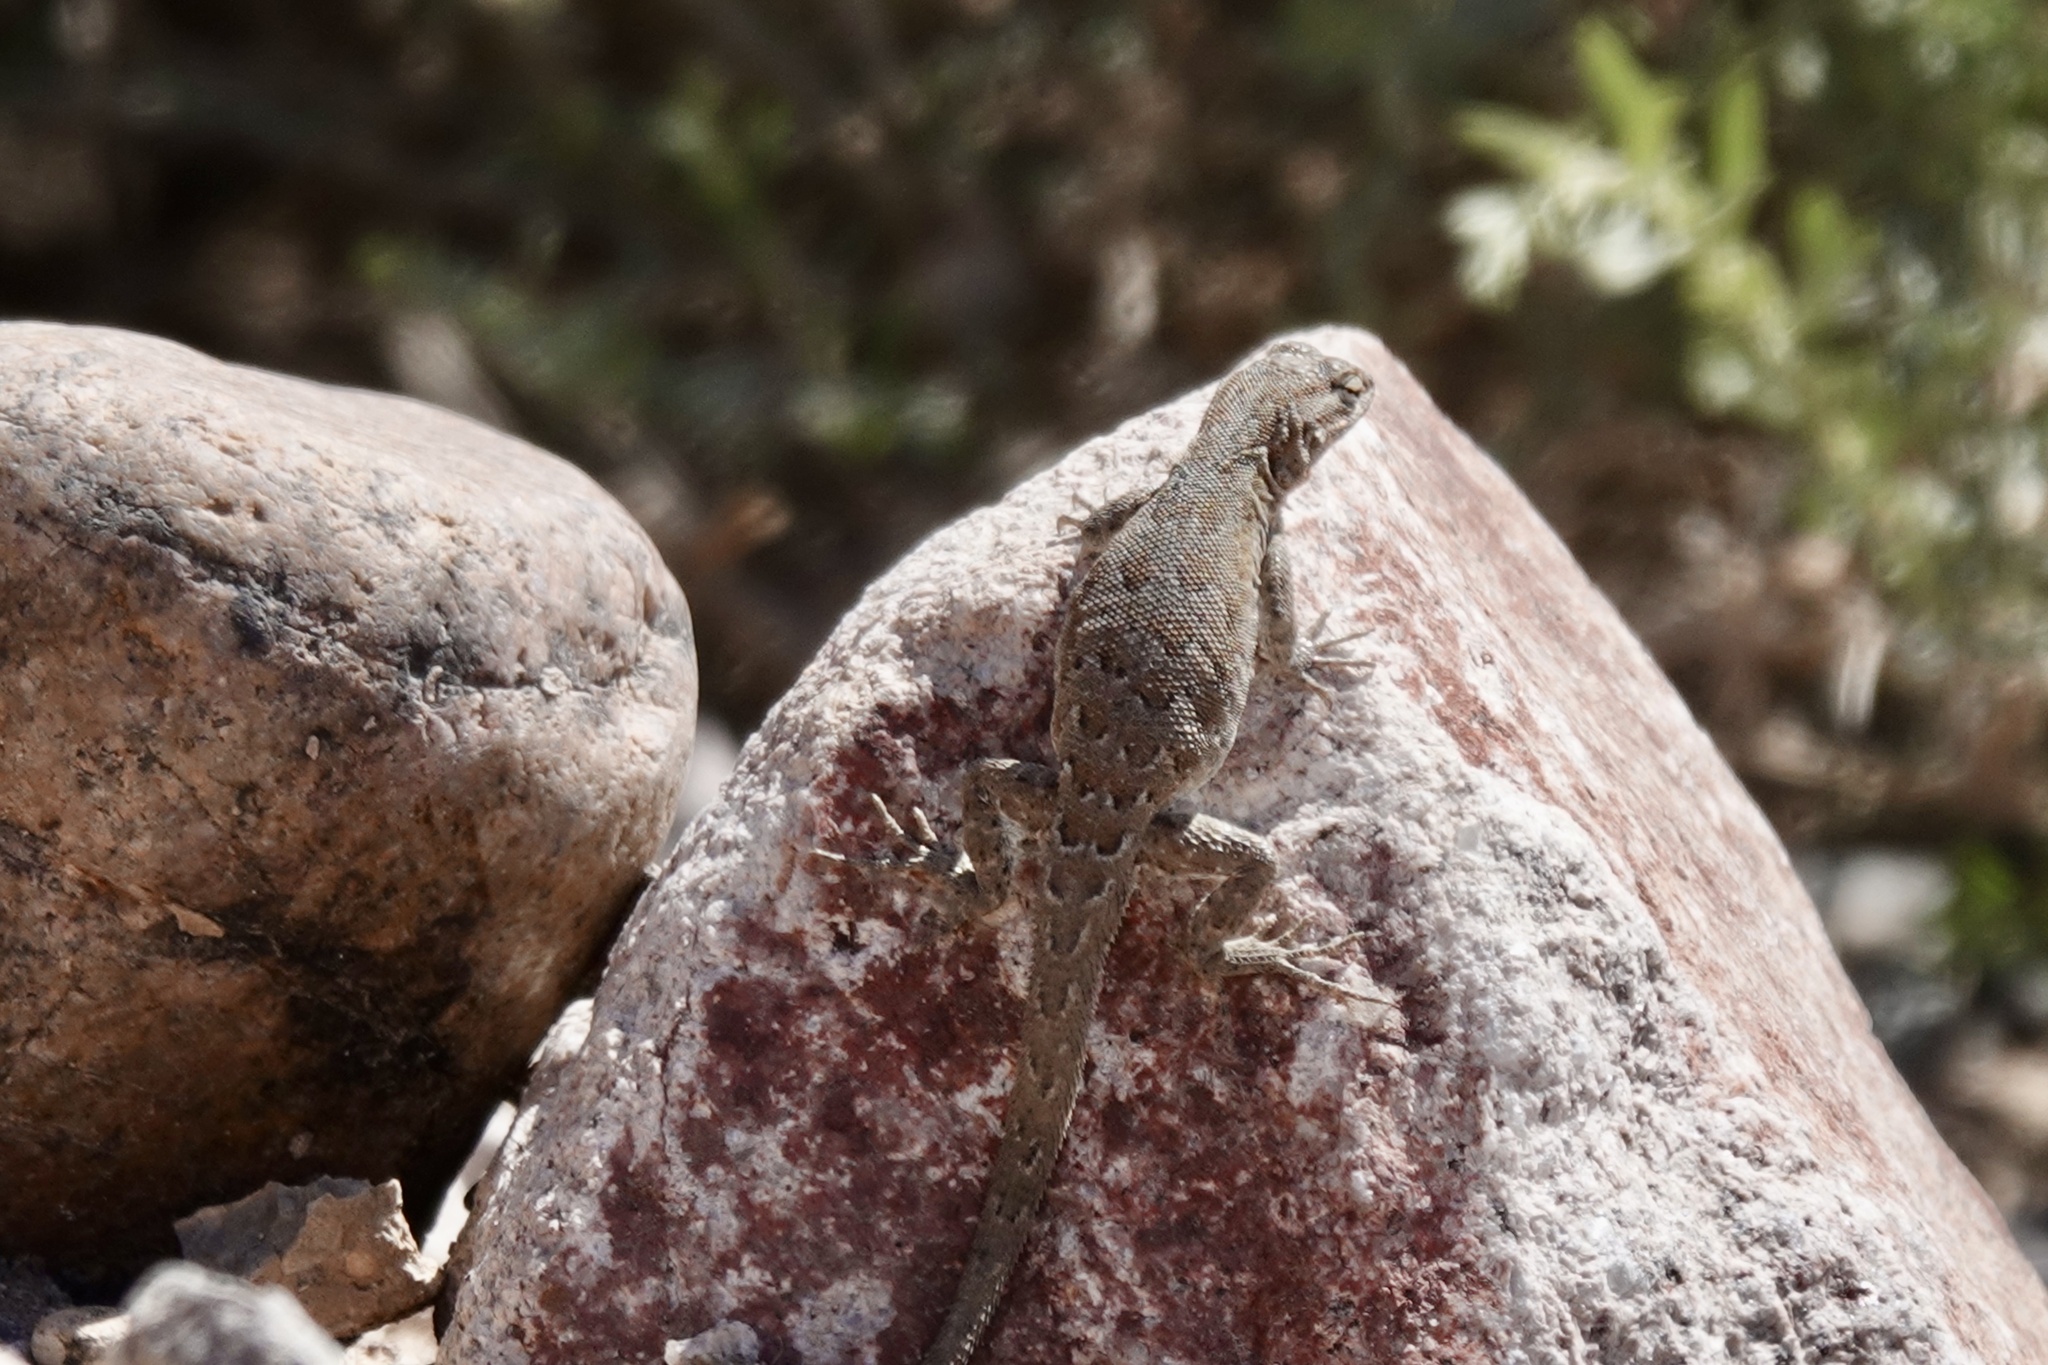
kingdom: Animalia
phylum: Chordata
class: Squamata
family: Phrynosomatidae
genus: Uta
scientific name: Uta stansburiana
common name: Side-blotched lizard
